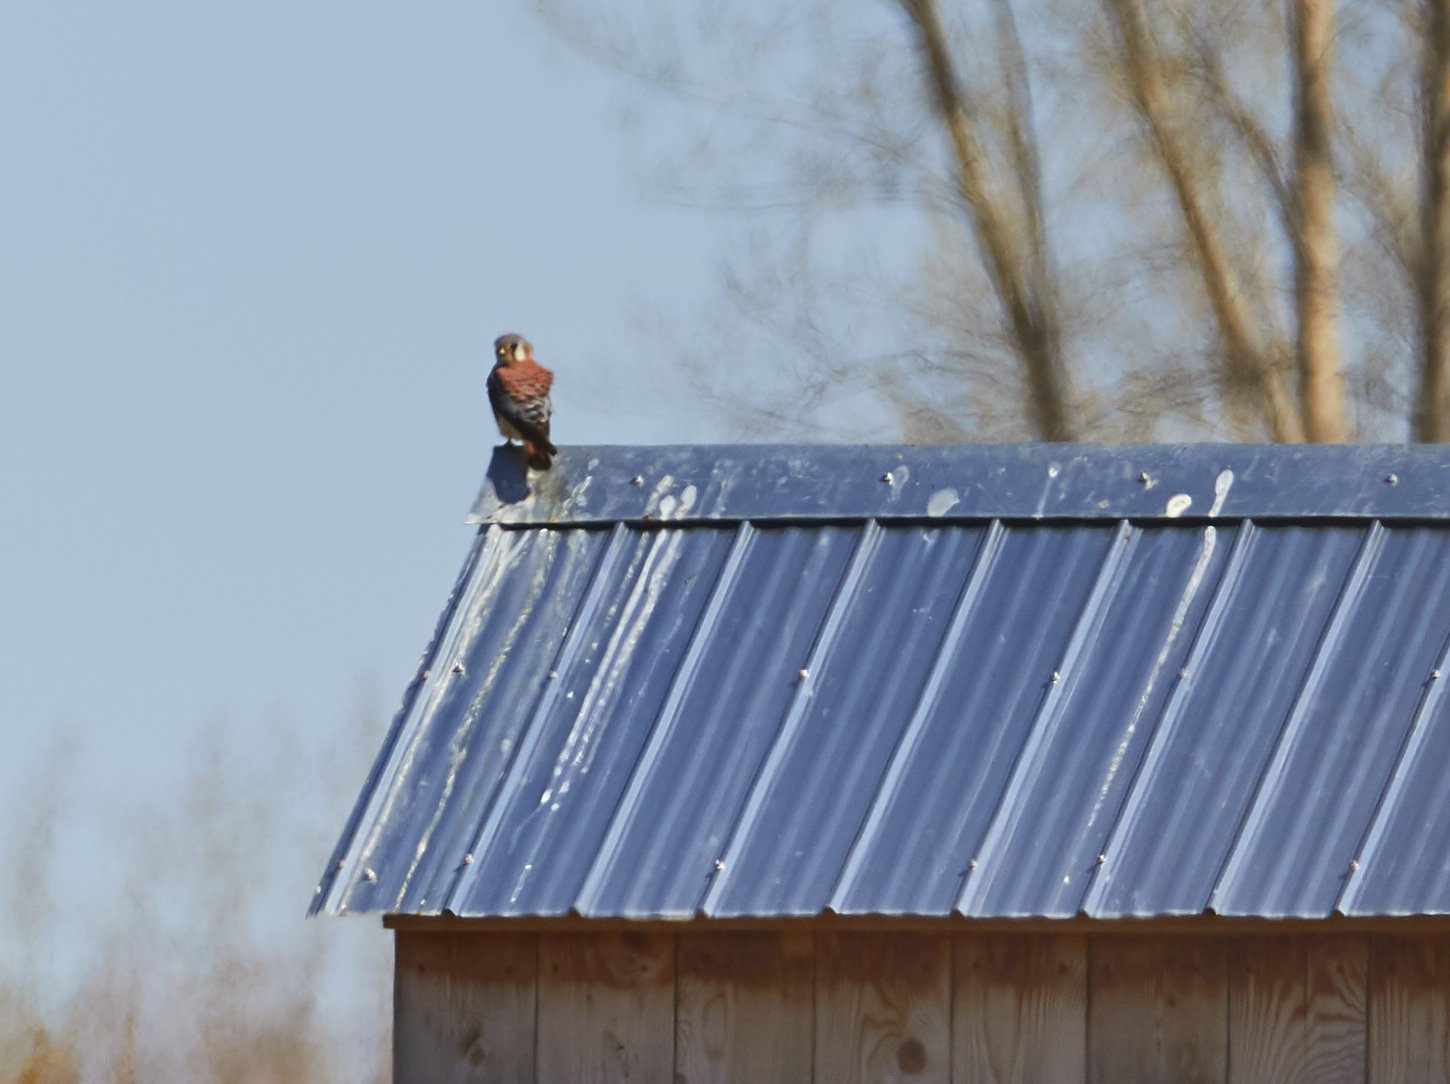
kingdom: Animalia
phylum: Chordata
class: Aves
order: Falconiformes
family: Falconidae
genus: Falco
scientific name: Falco sparverius
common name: American kestrel
